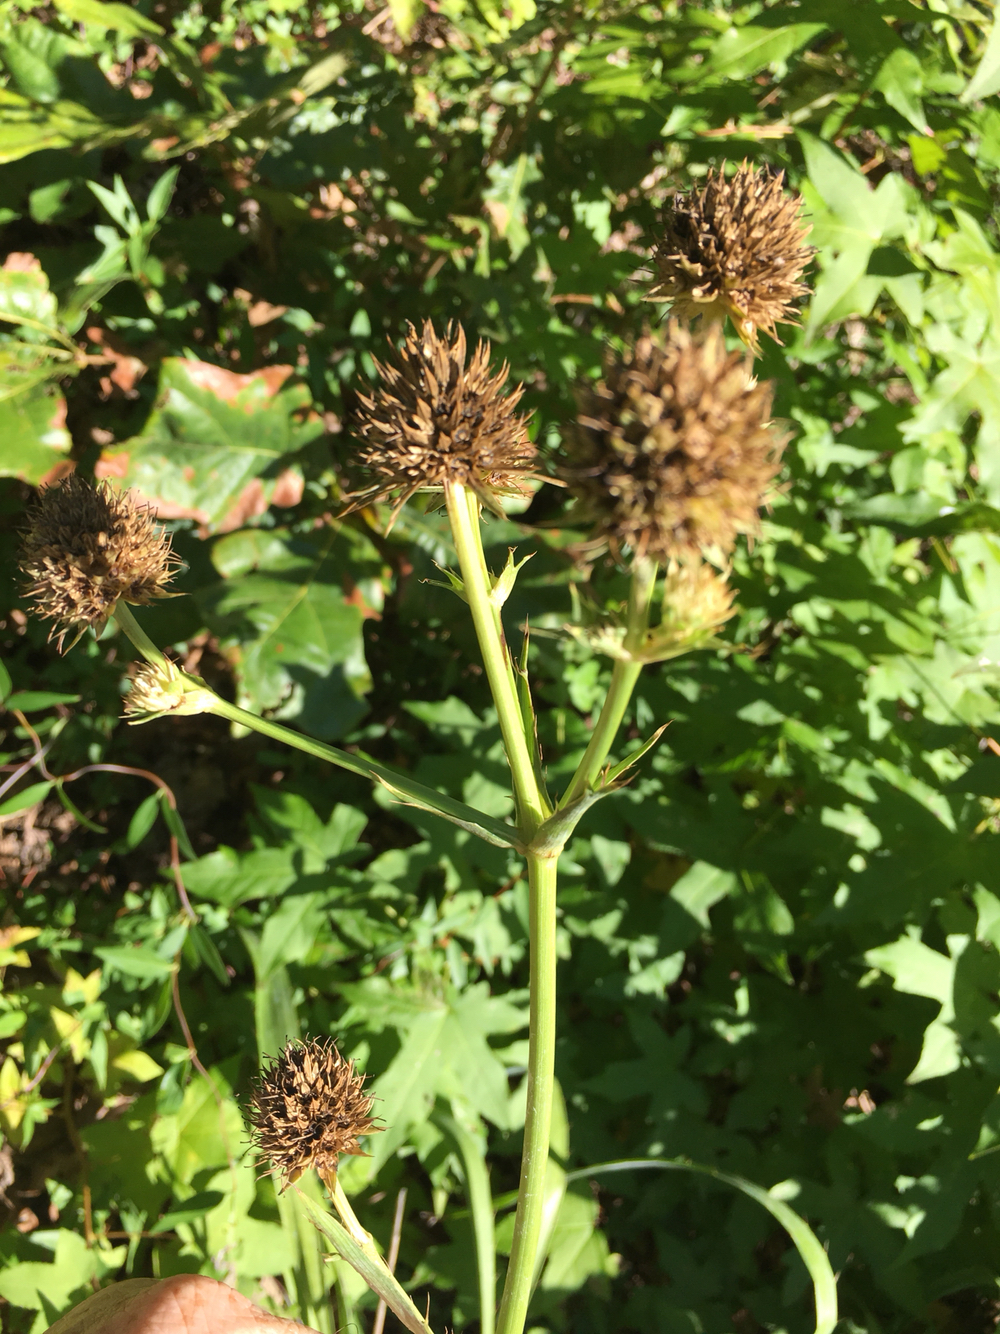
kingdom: Plantae
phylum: Tracheophyta
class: Magnoliopsida
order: Apiales
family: Apiaceae
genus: Eryngium
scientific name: Eryngium yuccifolium
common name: Button eryngo
